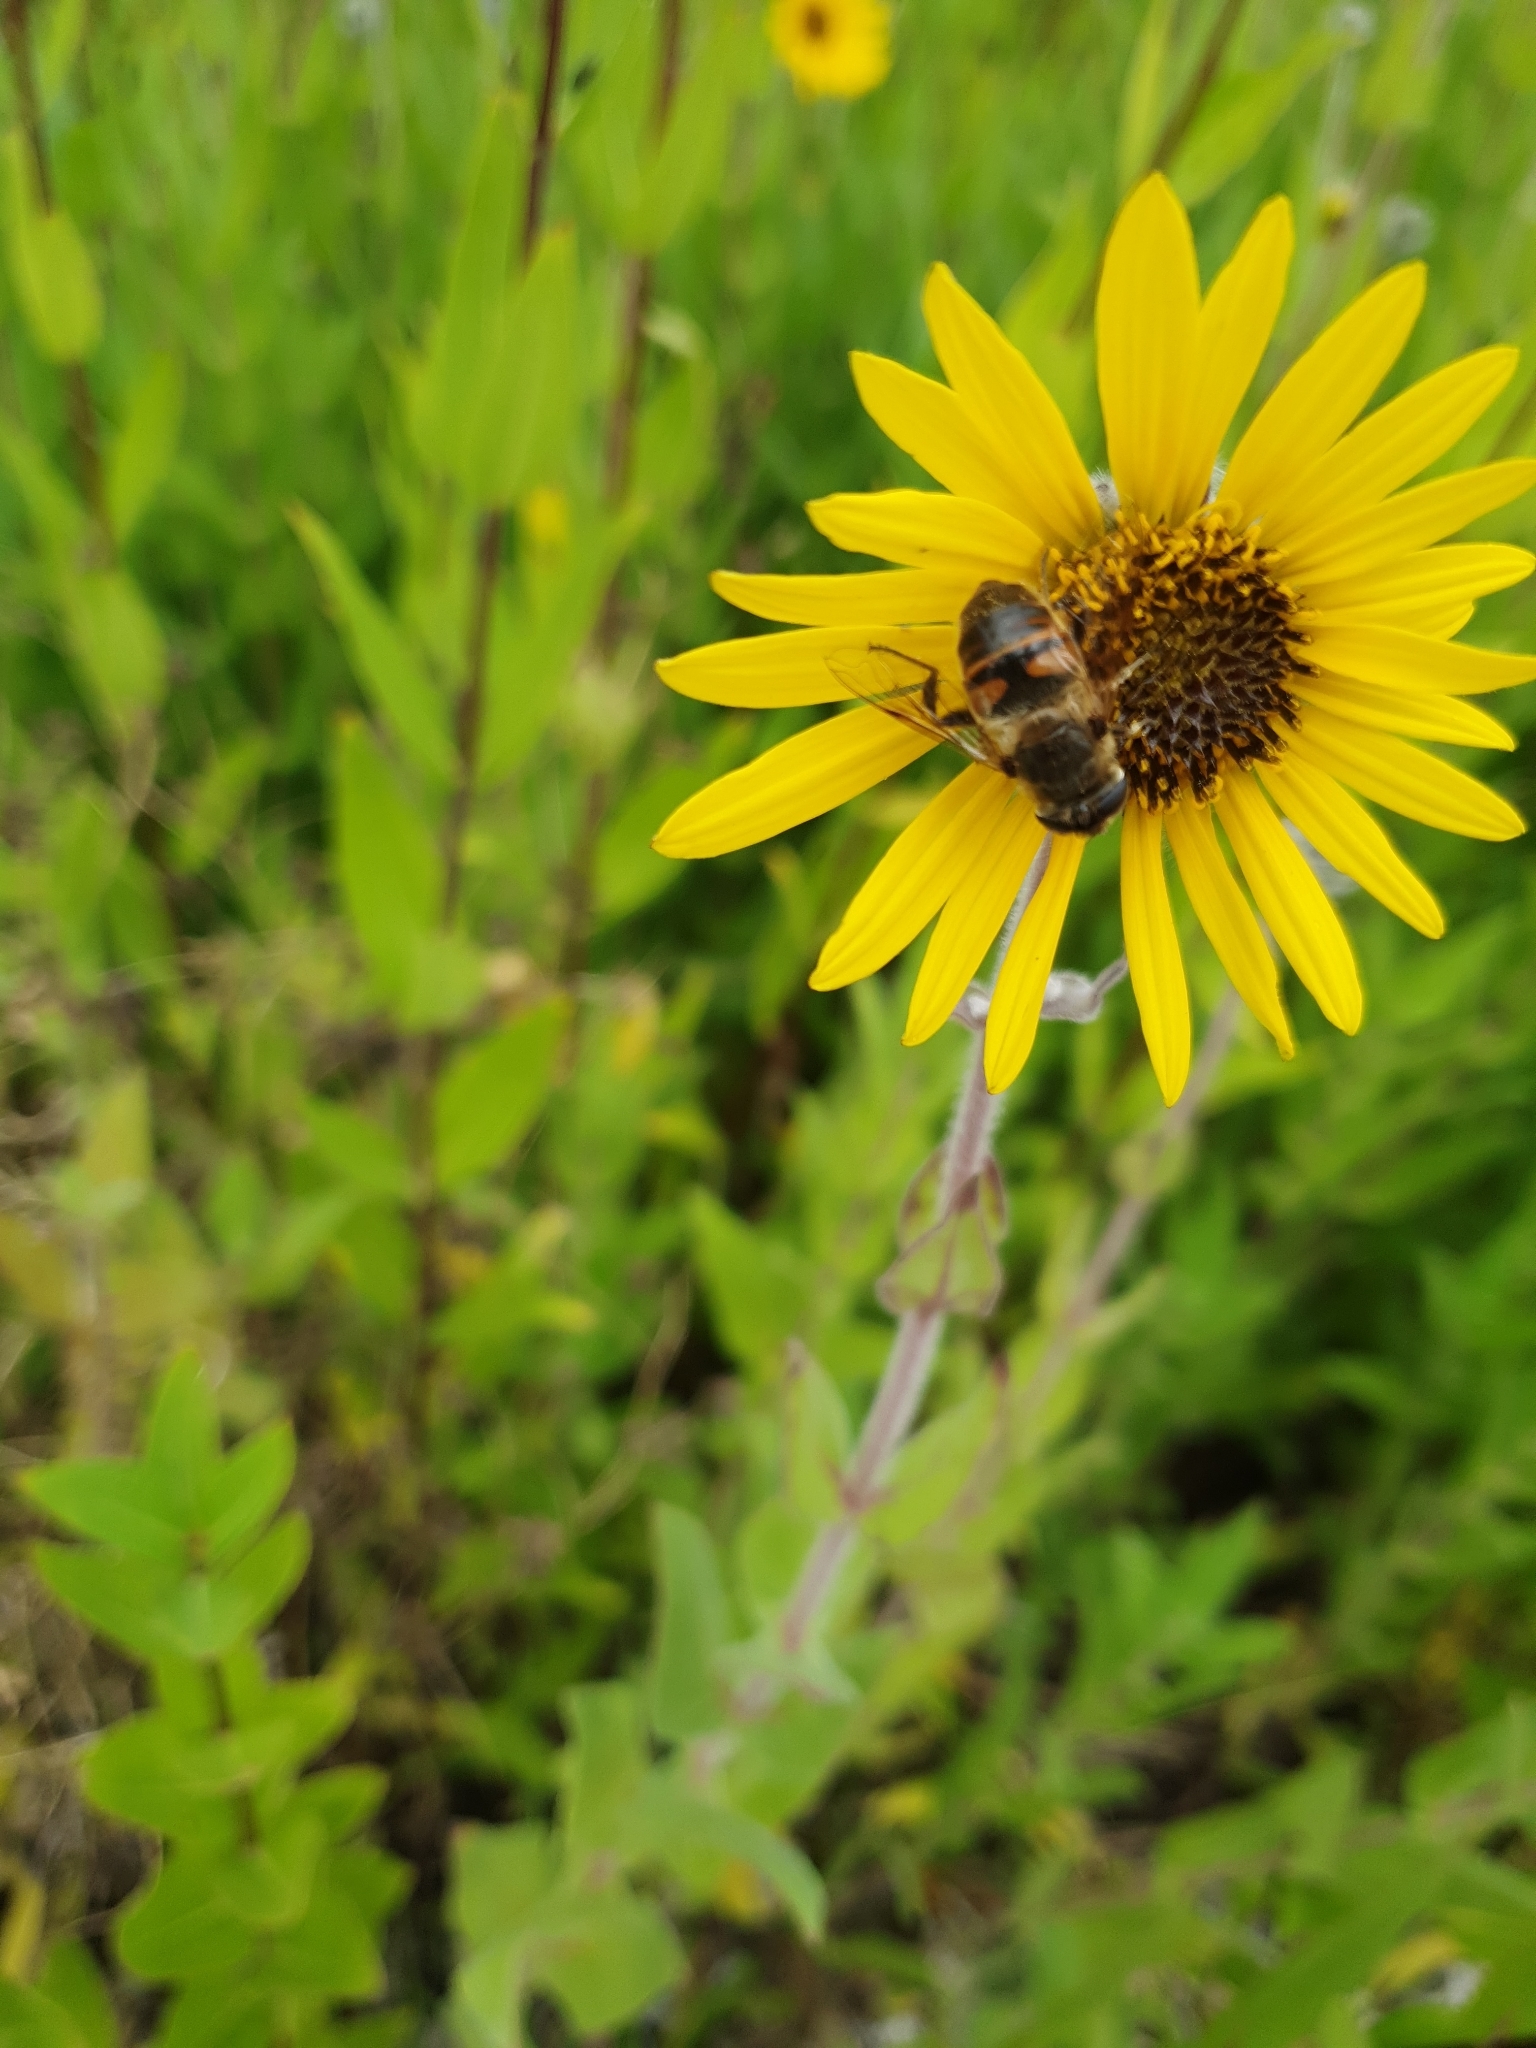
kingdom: Animalia
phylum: Arthropoda
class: Insecta
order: Diptera
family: Syrphidae
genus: Eristalis
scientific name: Eristalis tenax
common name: Drone fly
